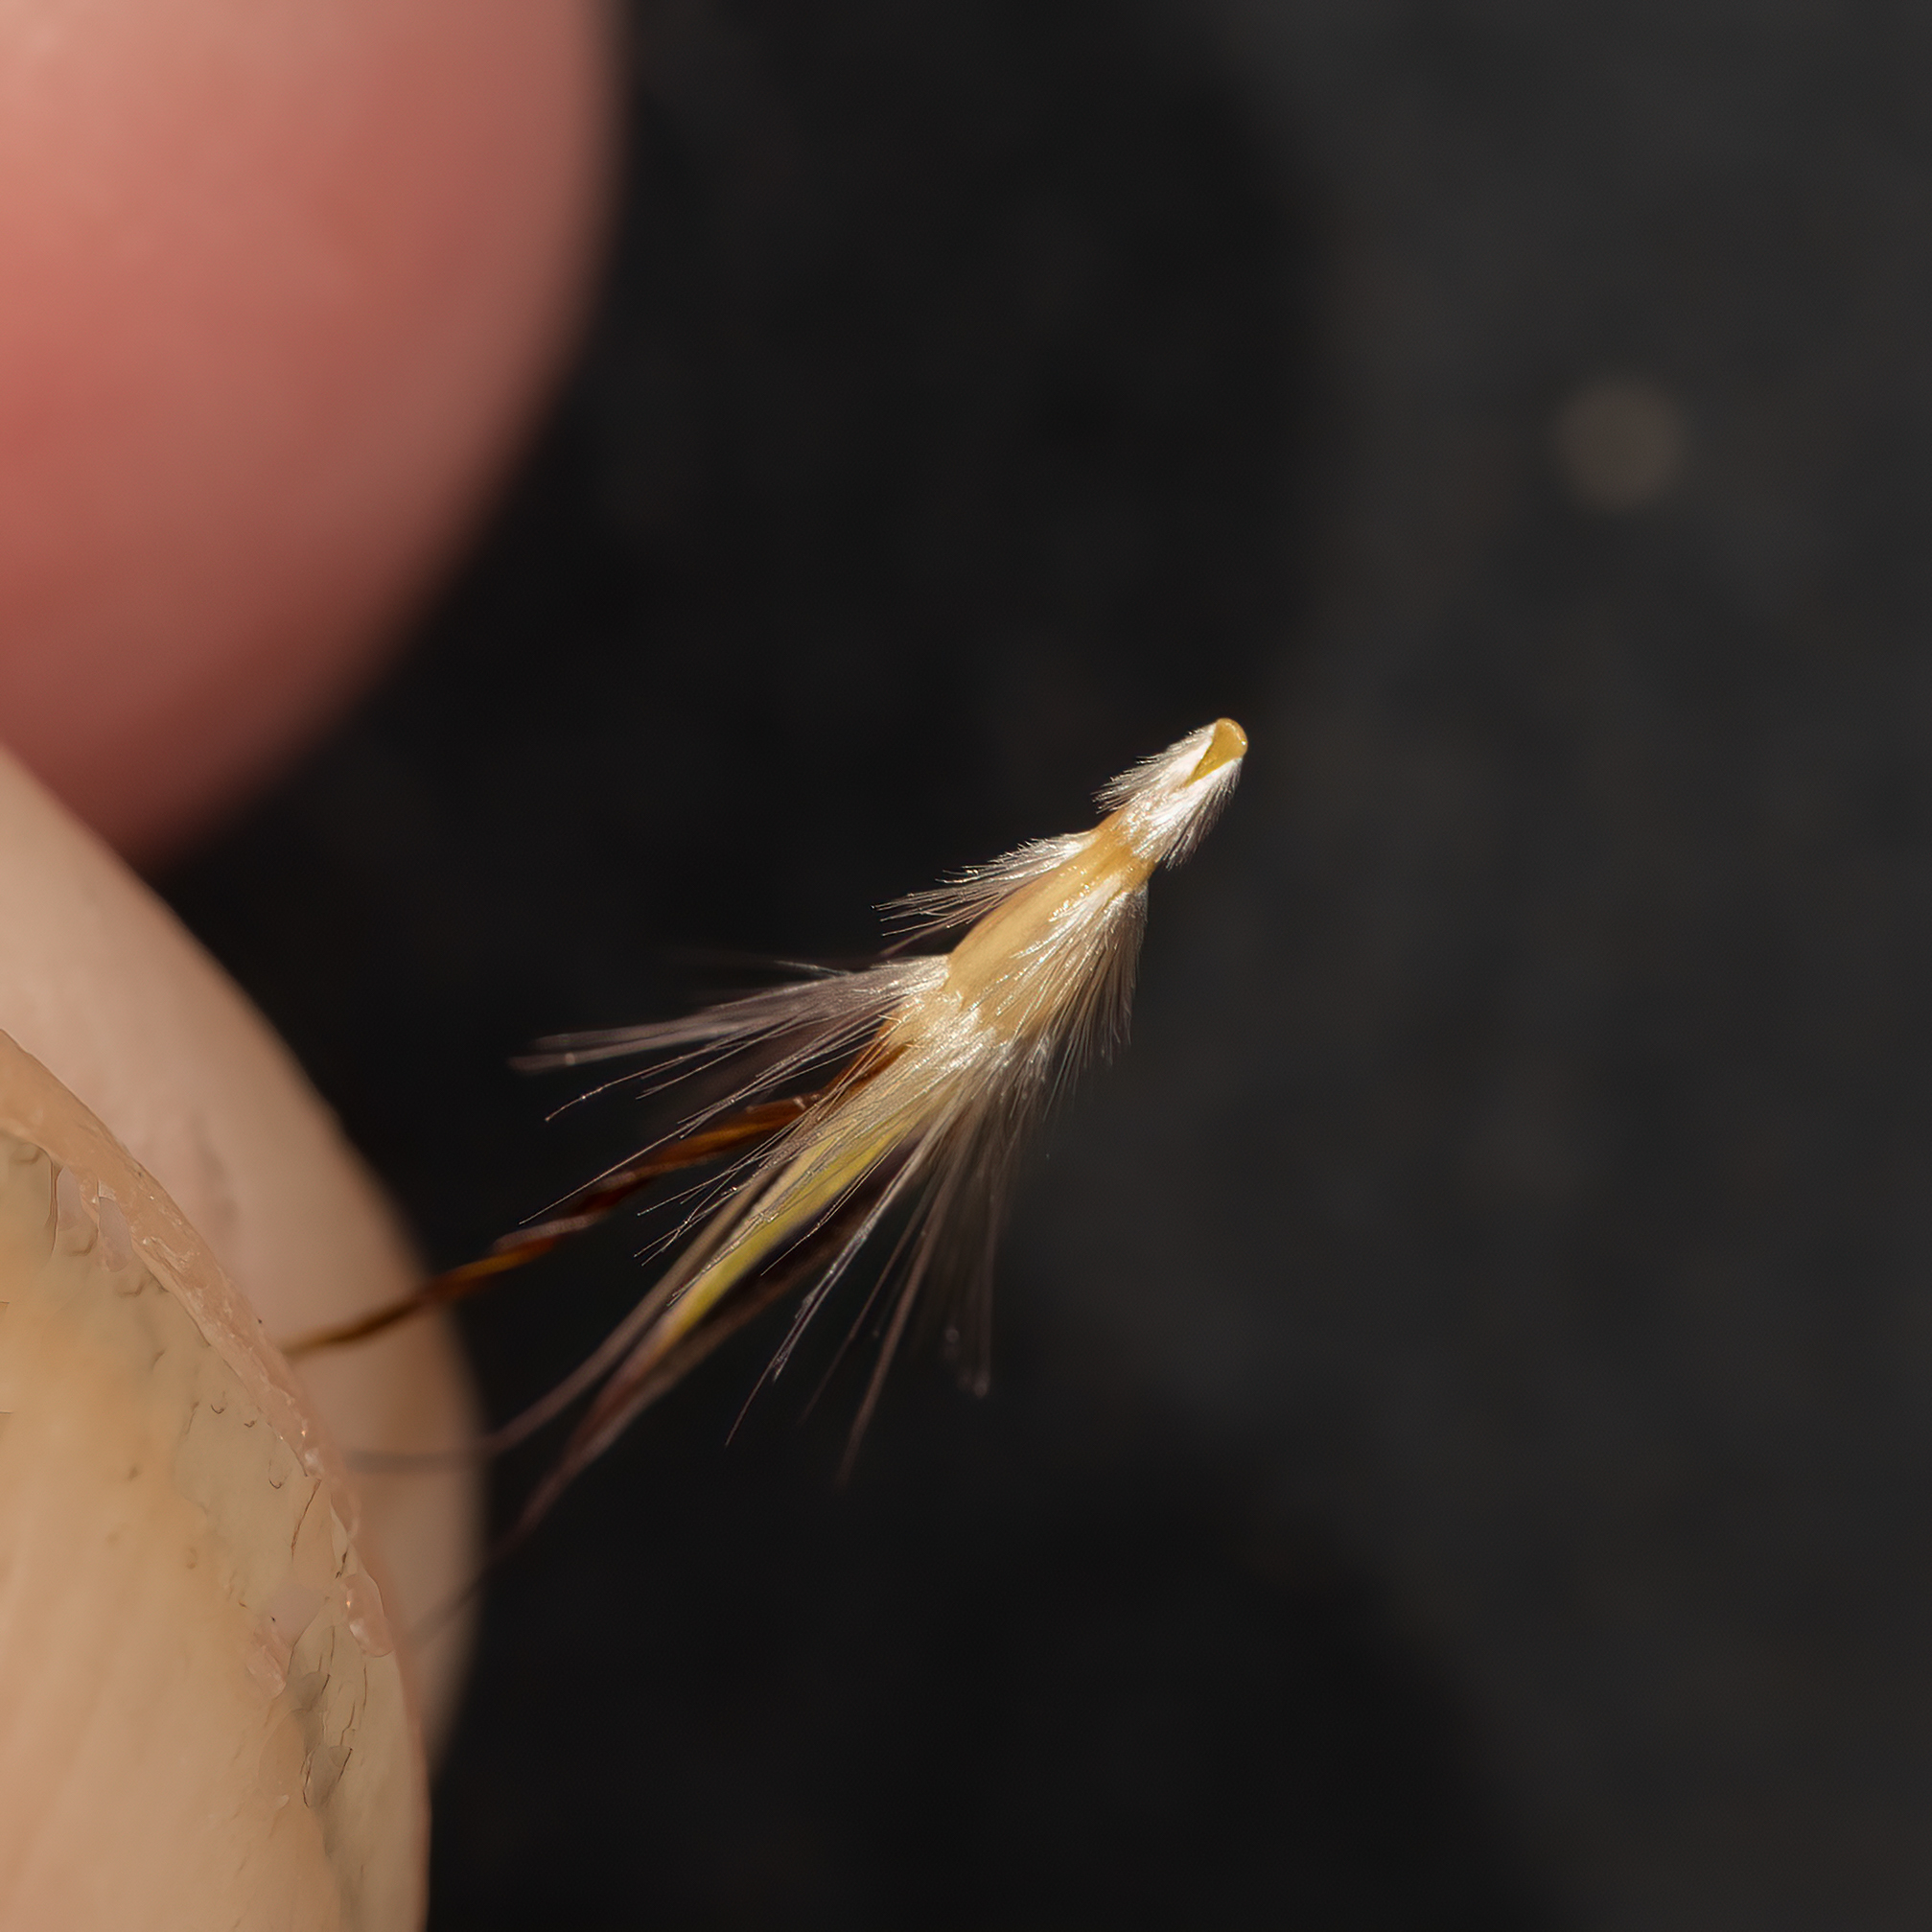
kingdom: Plantae
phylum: Tracheophyta
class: Liliopsida
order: Poales
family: Poaceae
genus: Rytidosperma
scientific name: Rytidosperma robertsoniae
